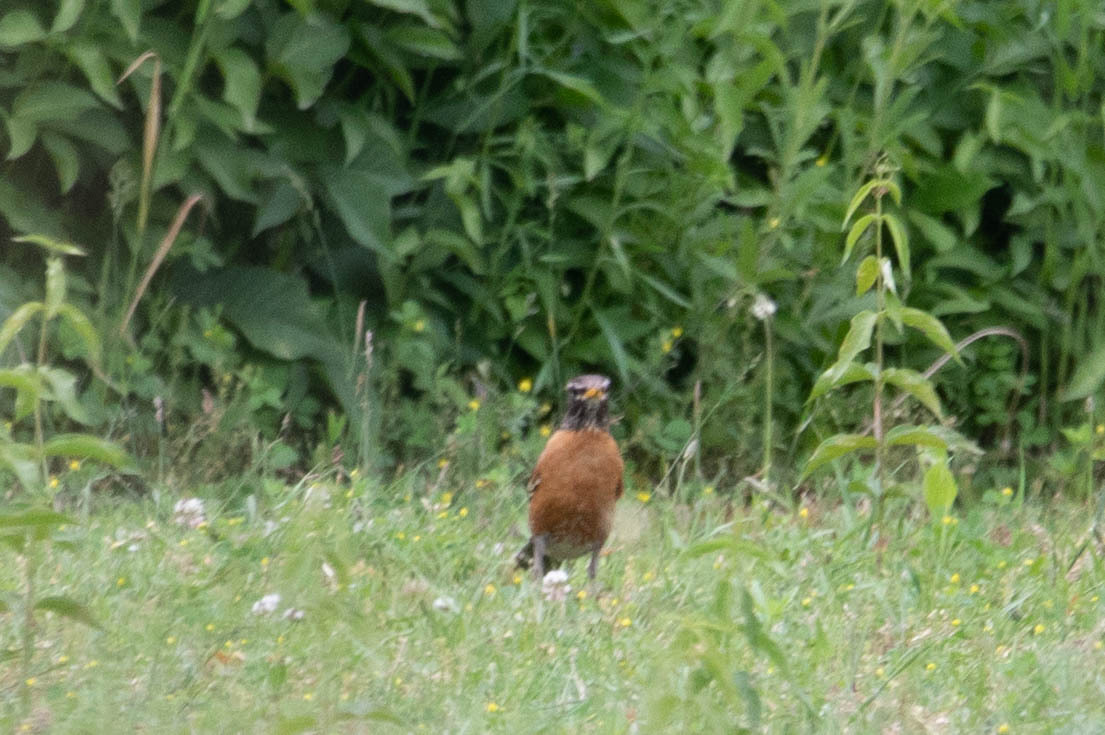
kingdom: Animalia
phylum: Chordata
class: Aves
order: Passeriformes
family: Turdidae
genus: Turdus
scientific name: Turdus migratorius
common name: American robin
